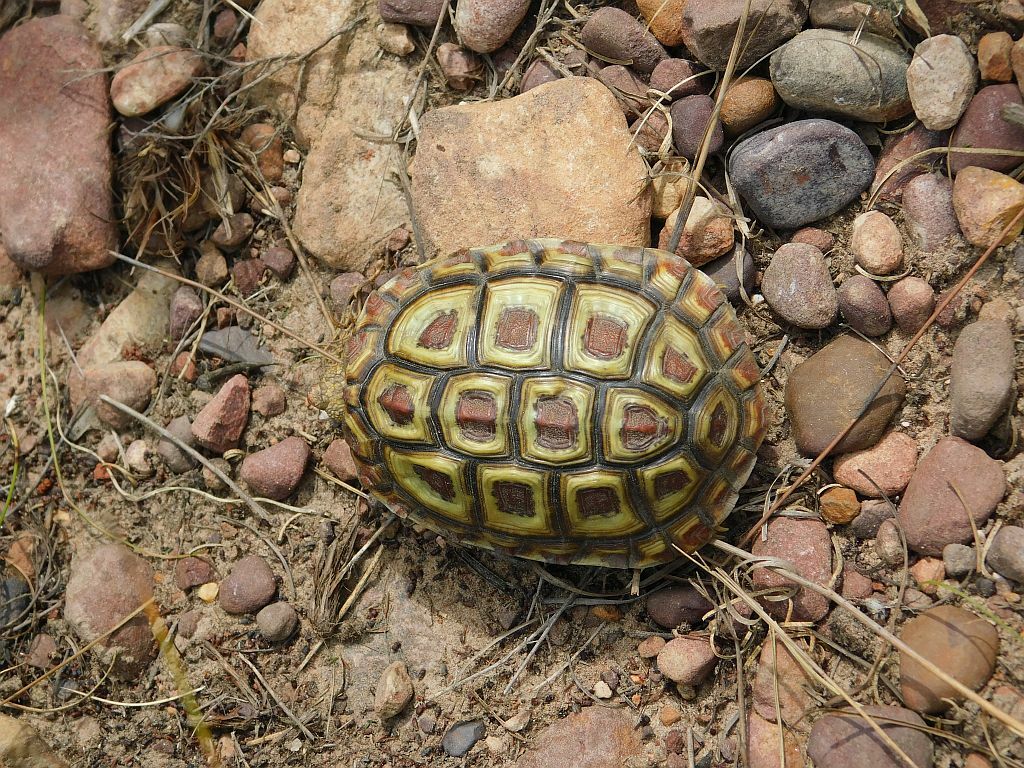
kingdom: Animalia
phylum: Chordata
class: Testudines
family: Testudinidae
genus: Homopus
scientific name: Homopus areolatus
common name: Parrot-beaked tortoise
